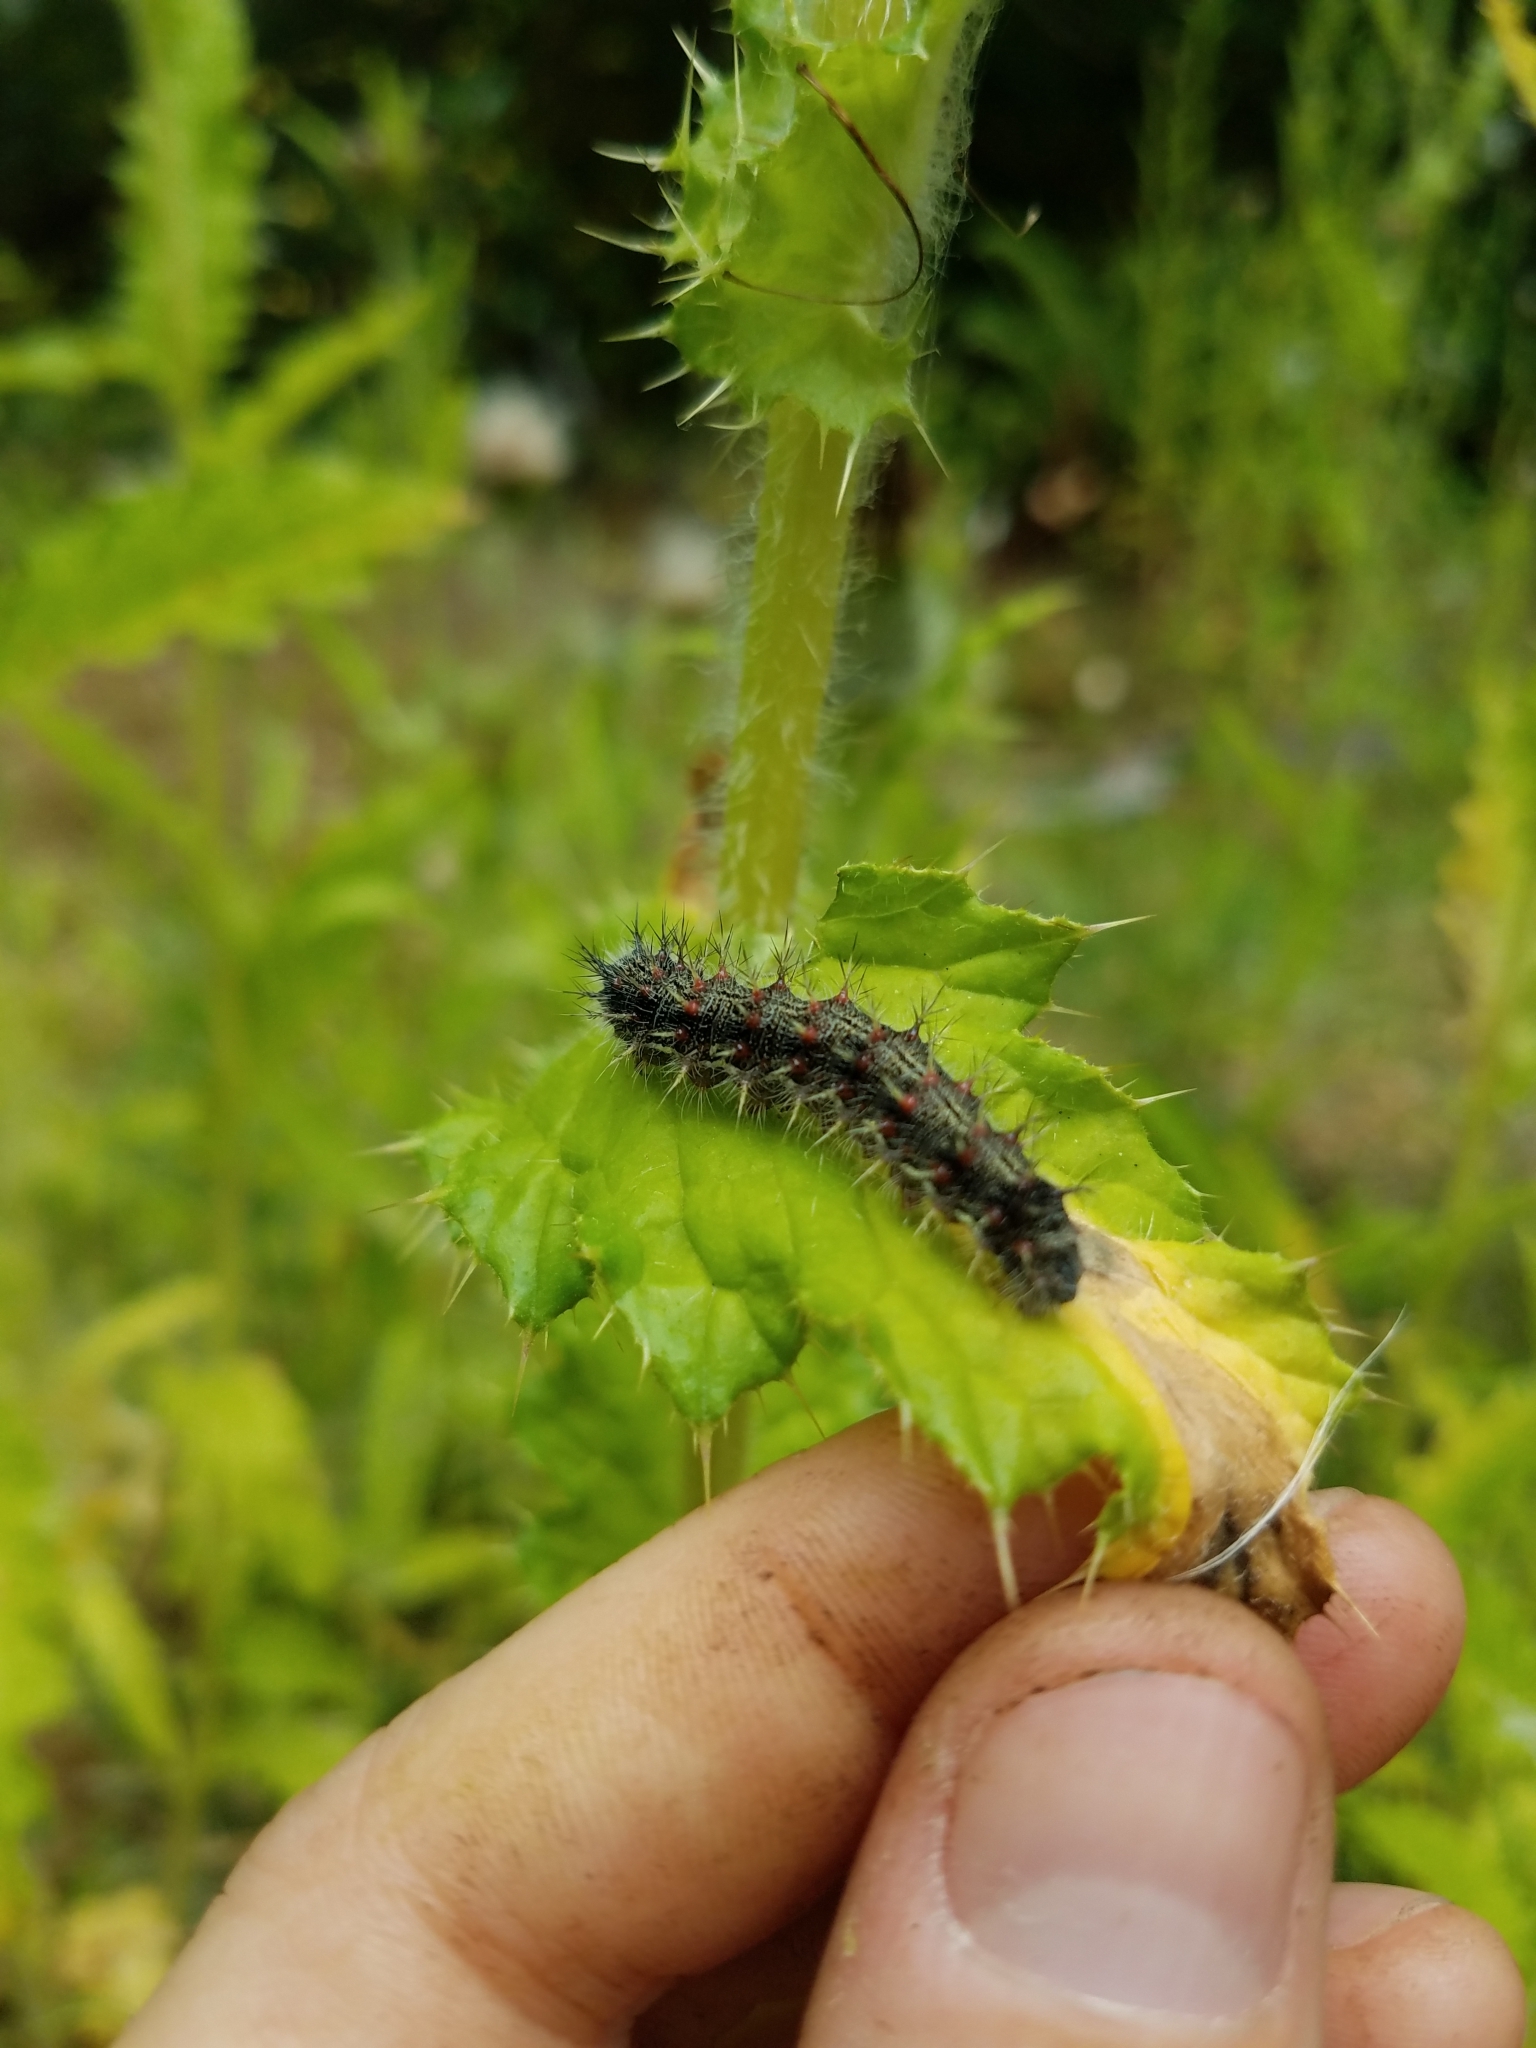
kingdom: Animalia
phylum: Arthropoda
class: Insecta
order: Lepidoptera
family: Nymphalidae
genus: Vanessa
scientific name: Vanessa cardui
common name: Painted lady
